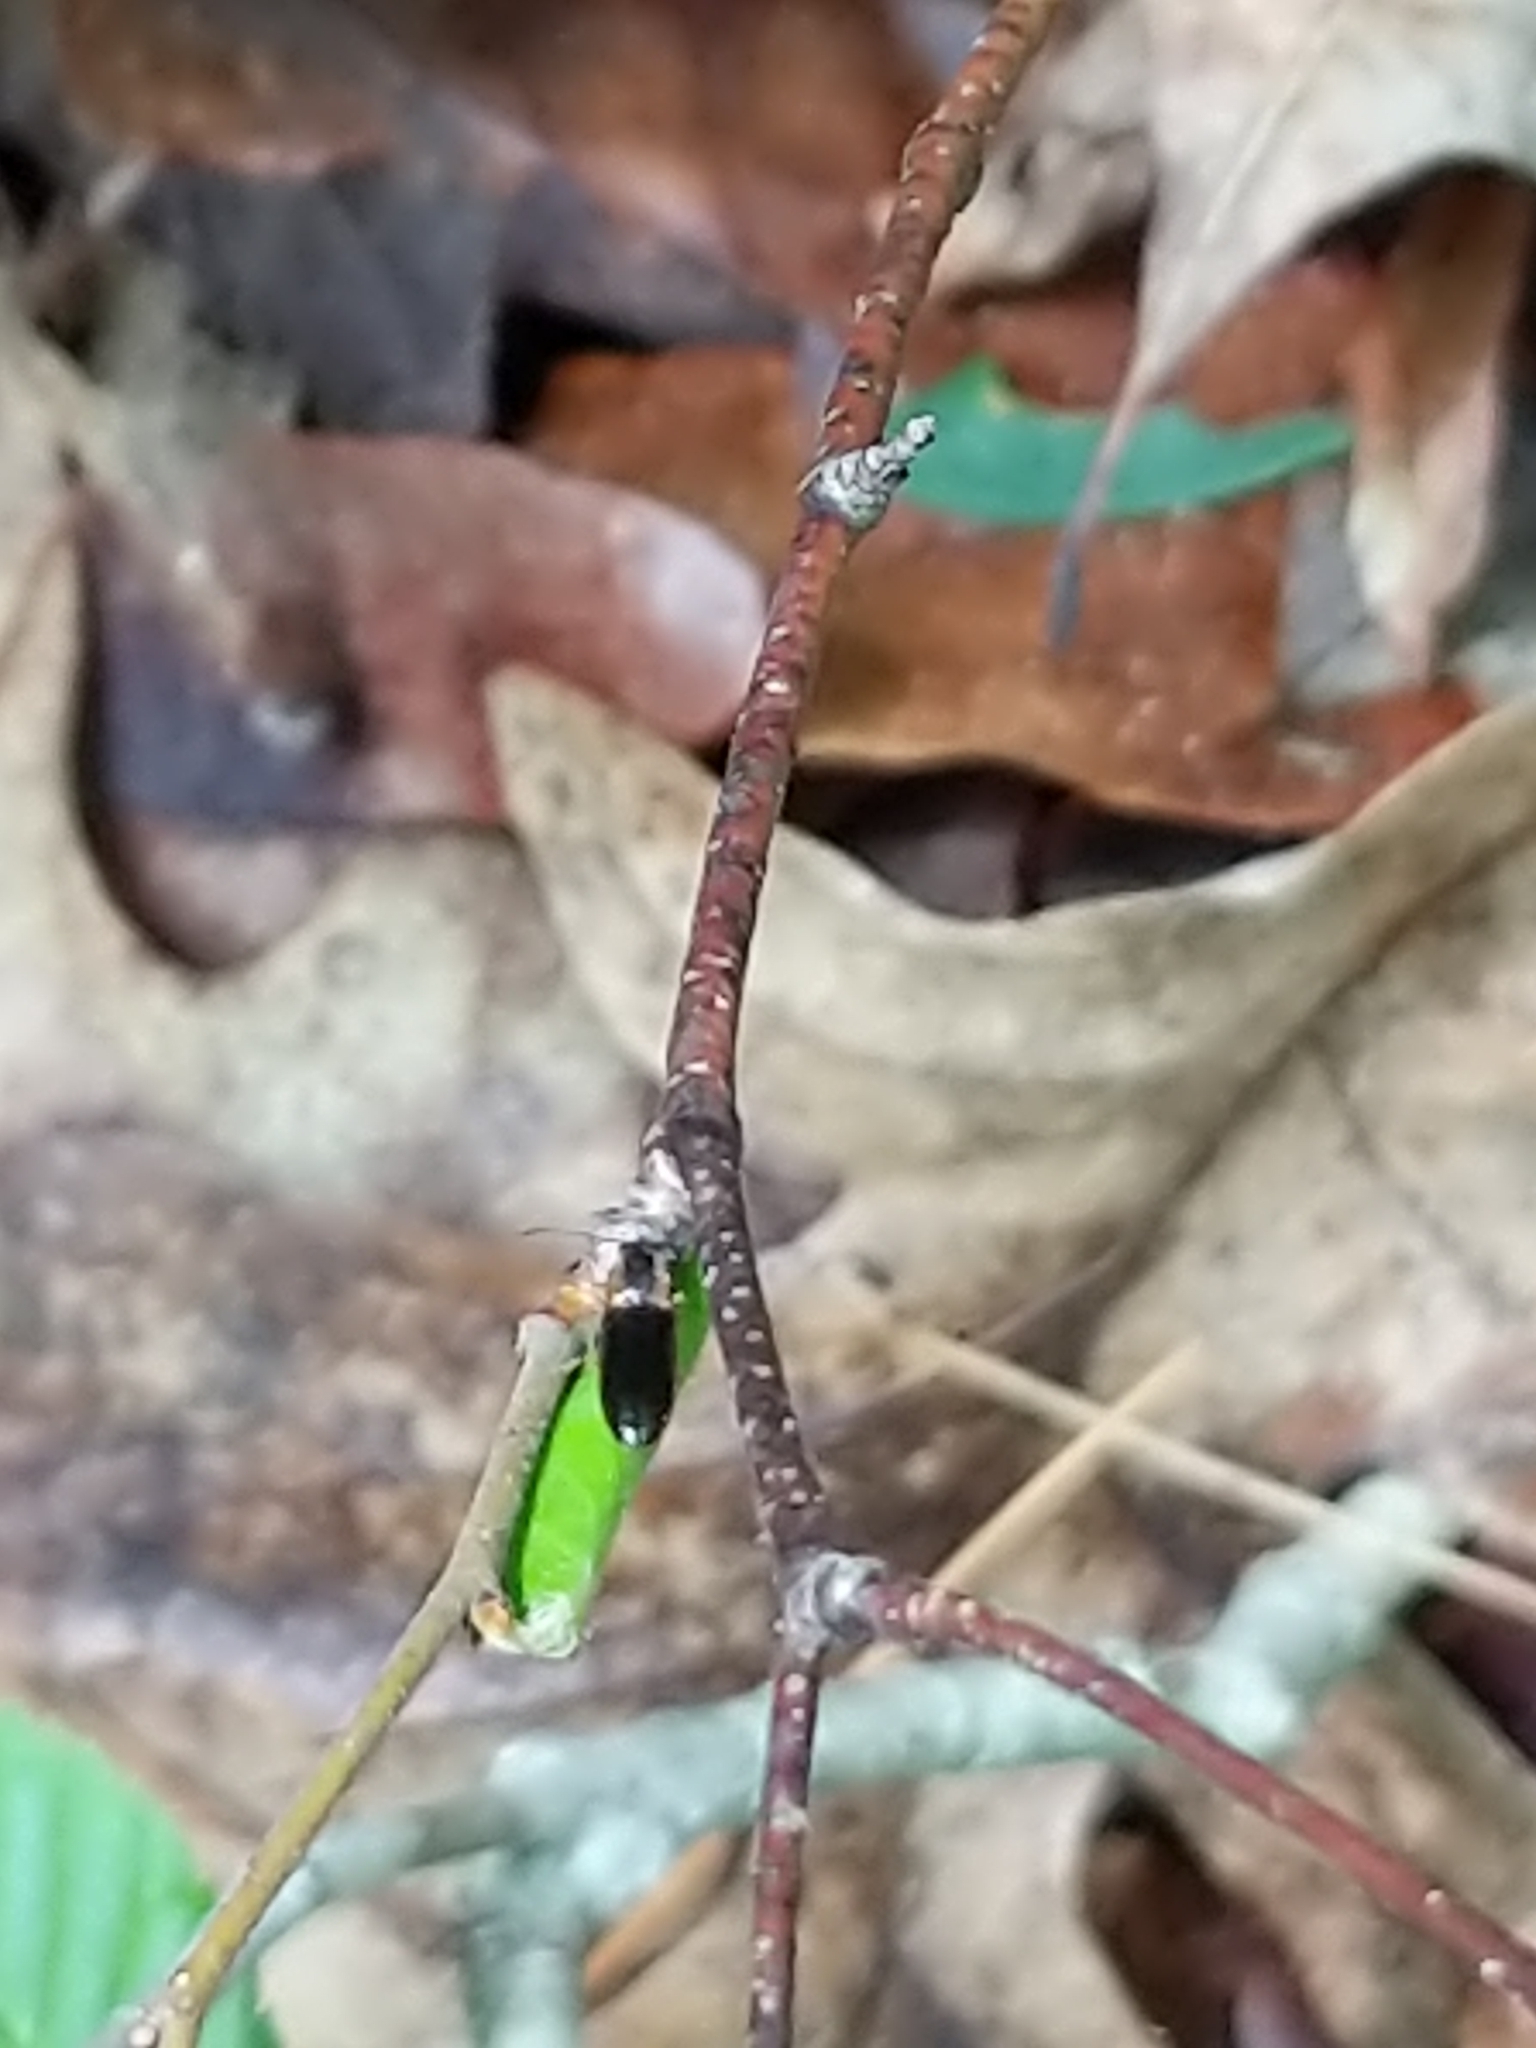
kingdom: Animalia
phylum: Arthropoda
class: Insecta
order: Coleoptera
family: Elateridae
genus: Athous
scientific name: Athous neacanthus
